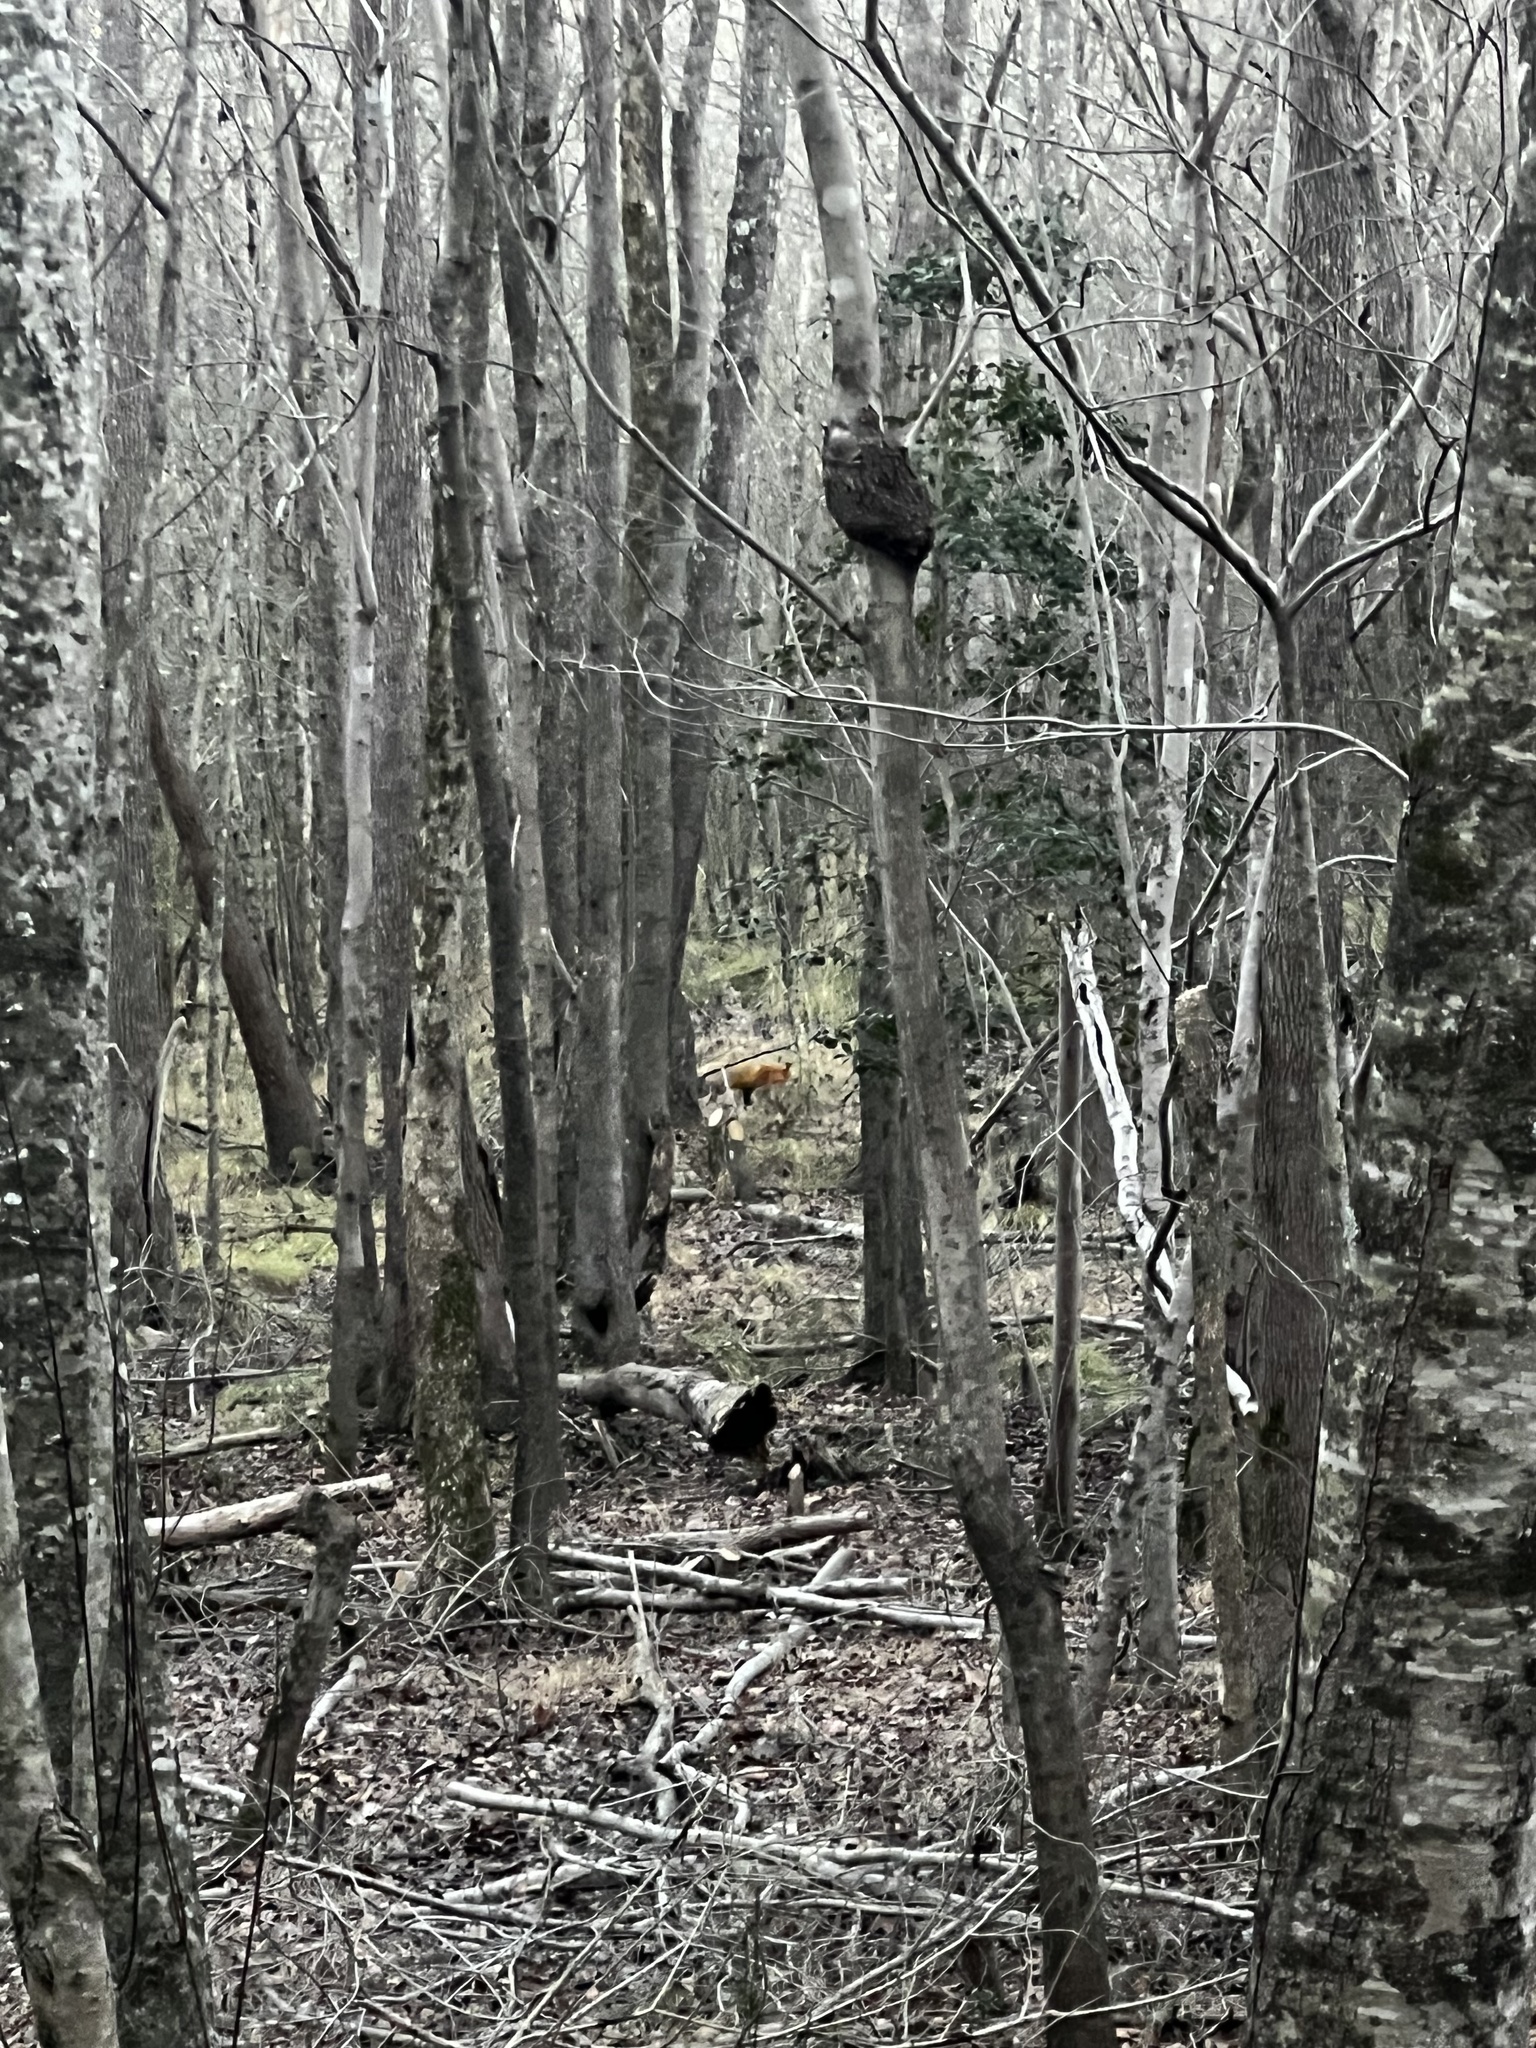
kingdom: Animalia
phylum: Chordata
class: Mammalia
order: Carnivora
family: Canidae
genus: Vulpes
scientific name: Vulpes vulpes
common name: Red fox
